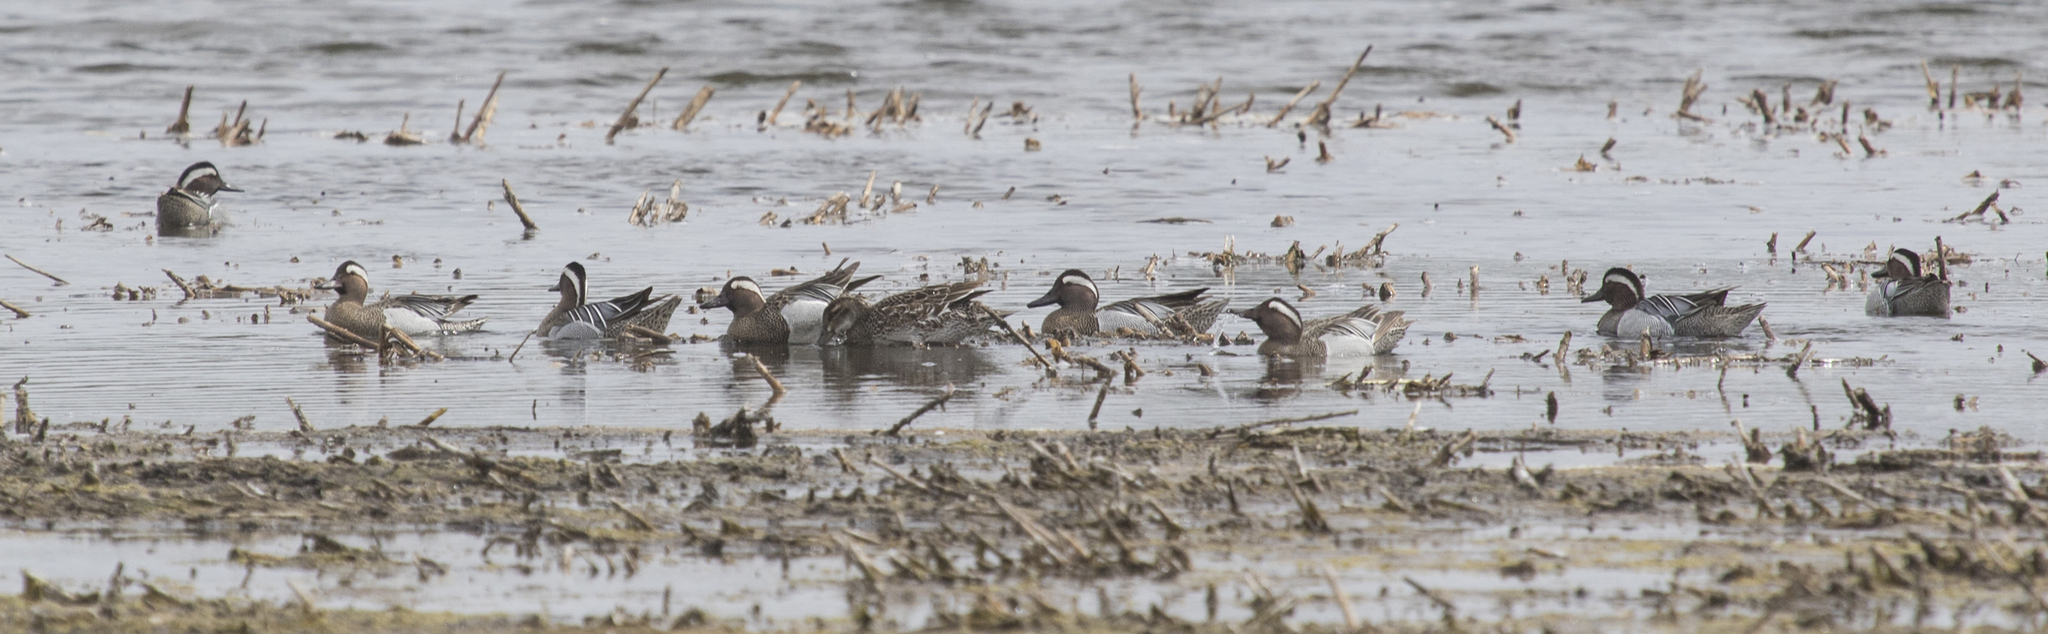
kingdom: Animalia
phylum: Chordata
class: Aves
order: Anseriformes
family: Anatidae
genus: Spatula
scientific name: Spatula querquedula
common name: Garganey
